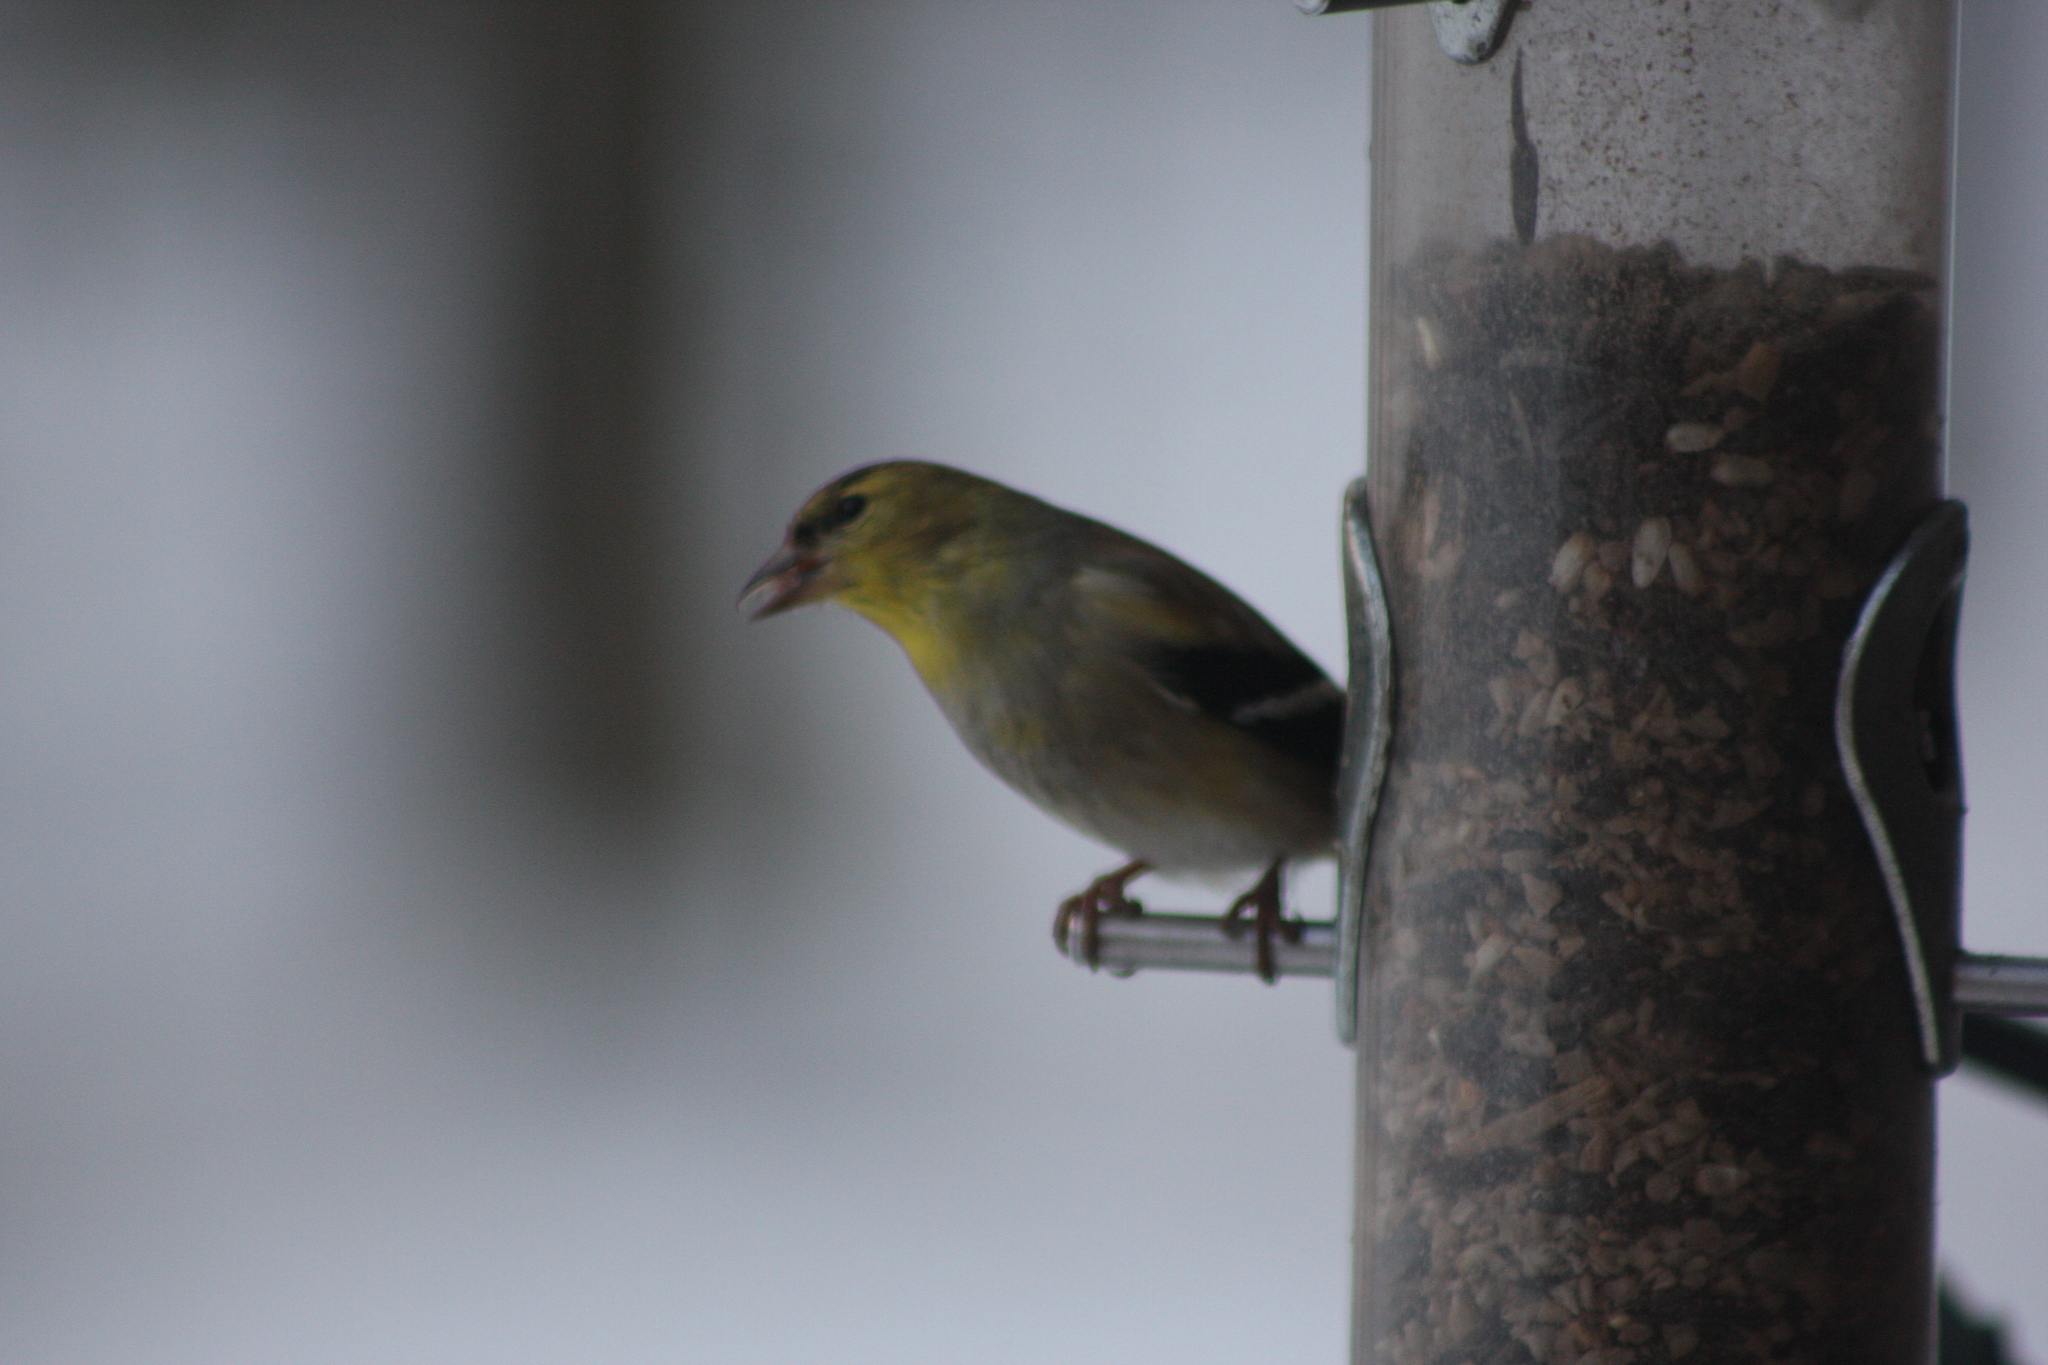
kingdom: Animalia
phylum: Chordata
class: Aves
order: Passeriformes
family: Fringillidae
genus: Spinus
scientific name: Spinus tristis
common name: American goldfinch
